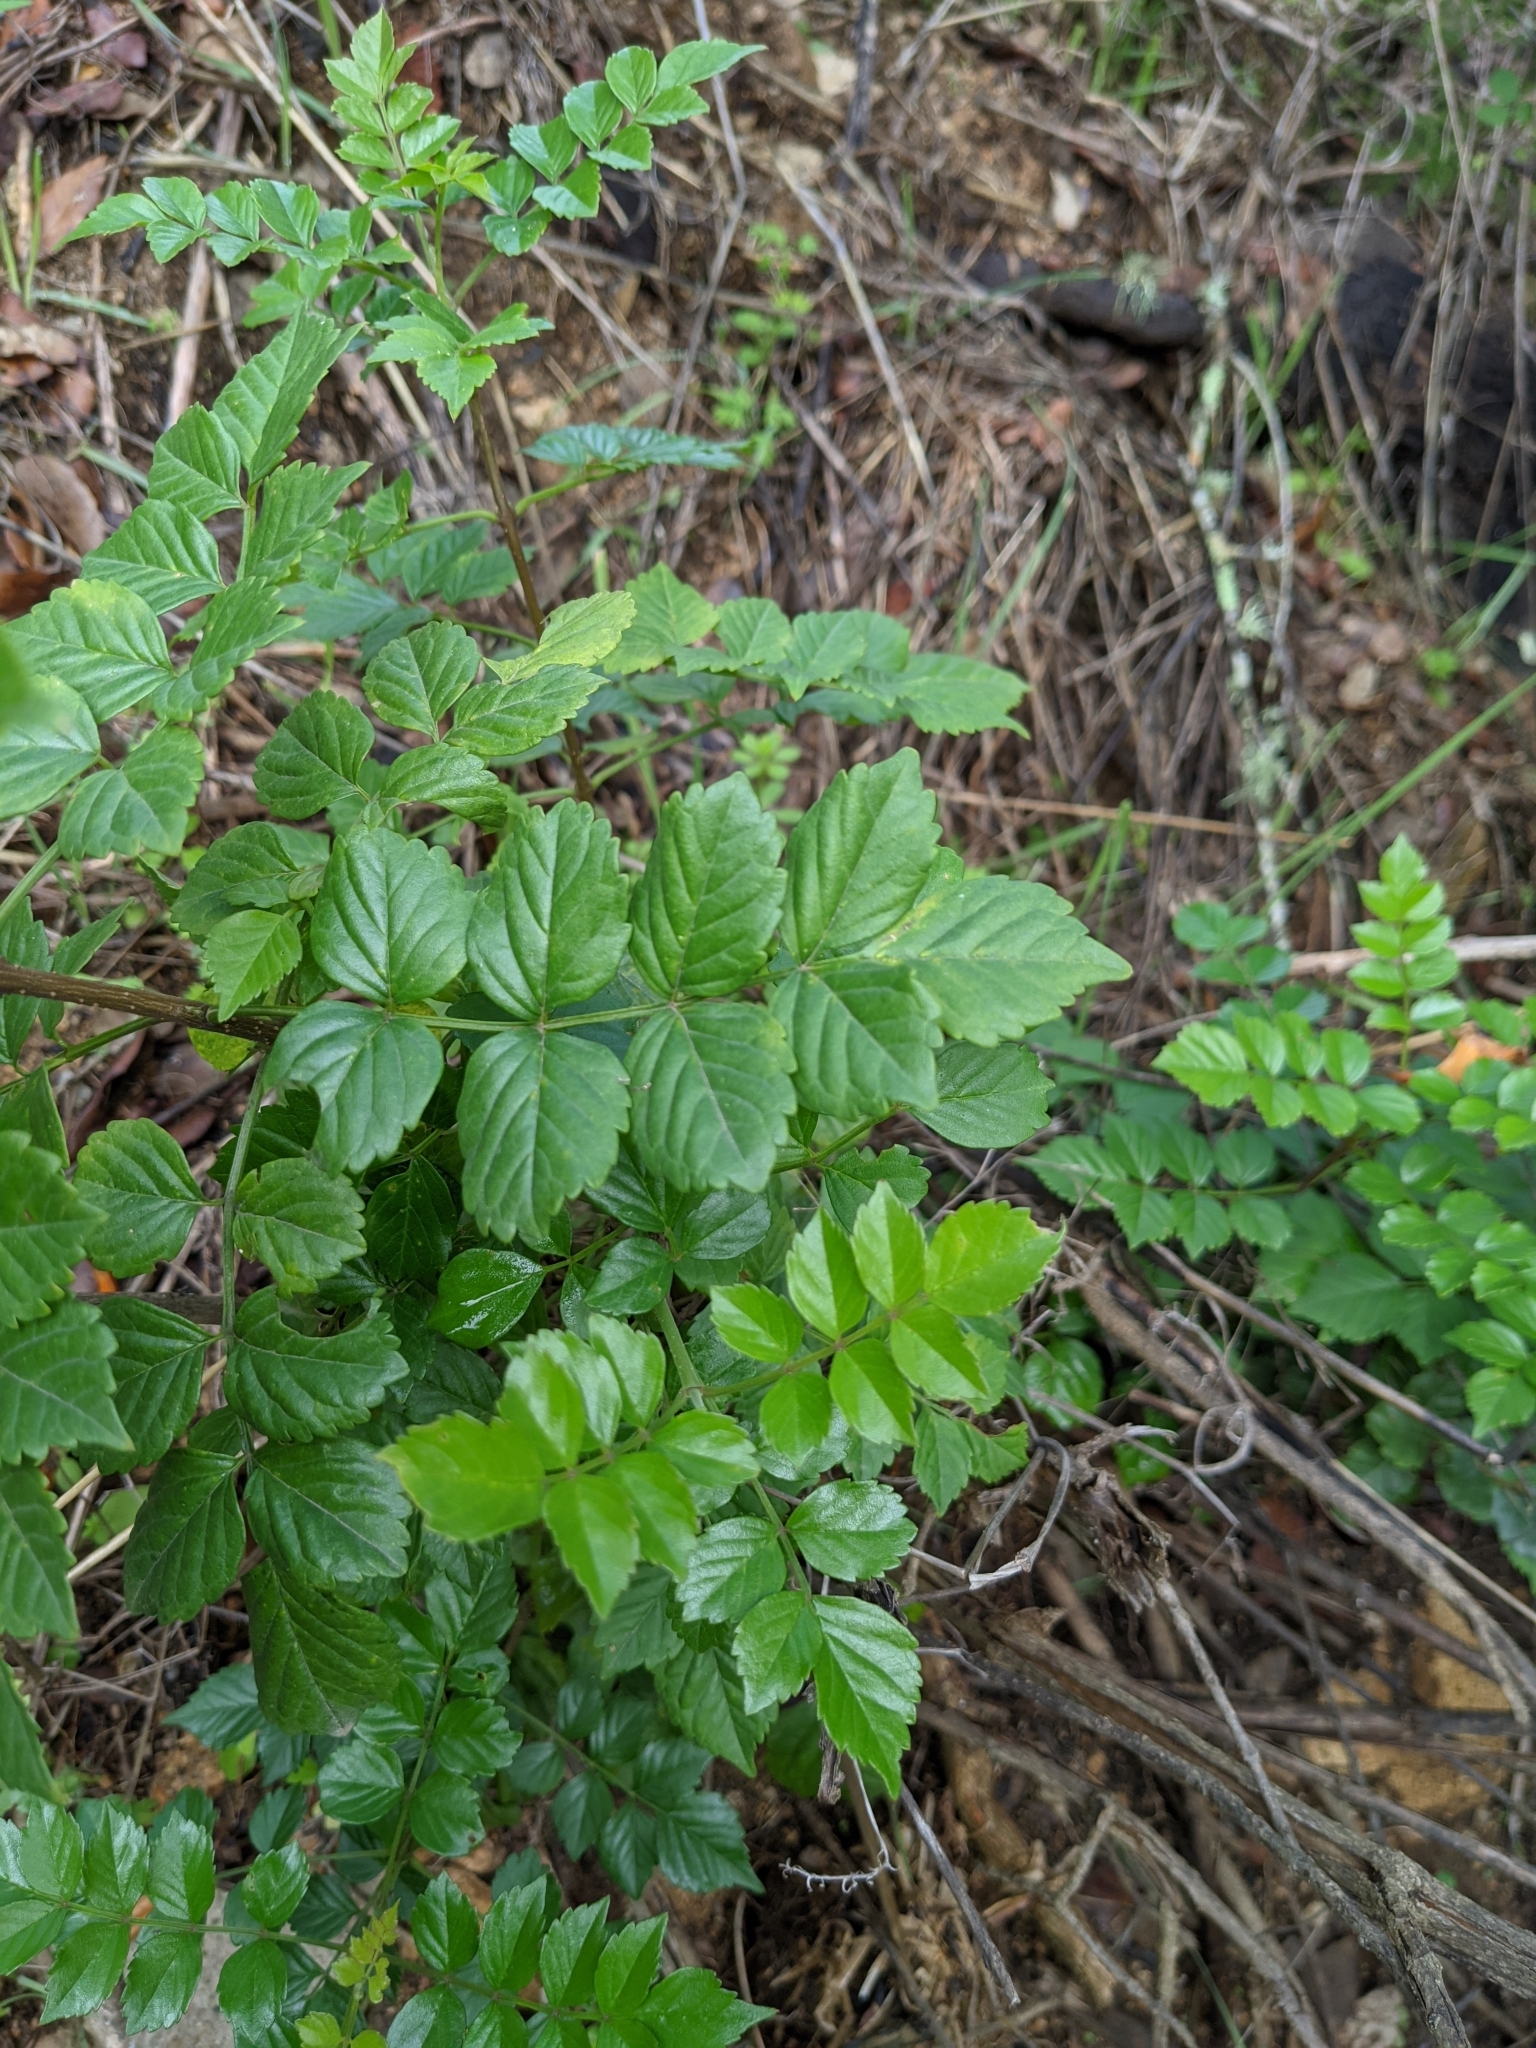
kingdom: Plantae
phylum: Tracheophyta
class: Magnoliopsida
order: Lamiales
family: Bignoniaceae
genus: Tecomaria
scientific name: Tecomaria capensis
